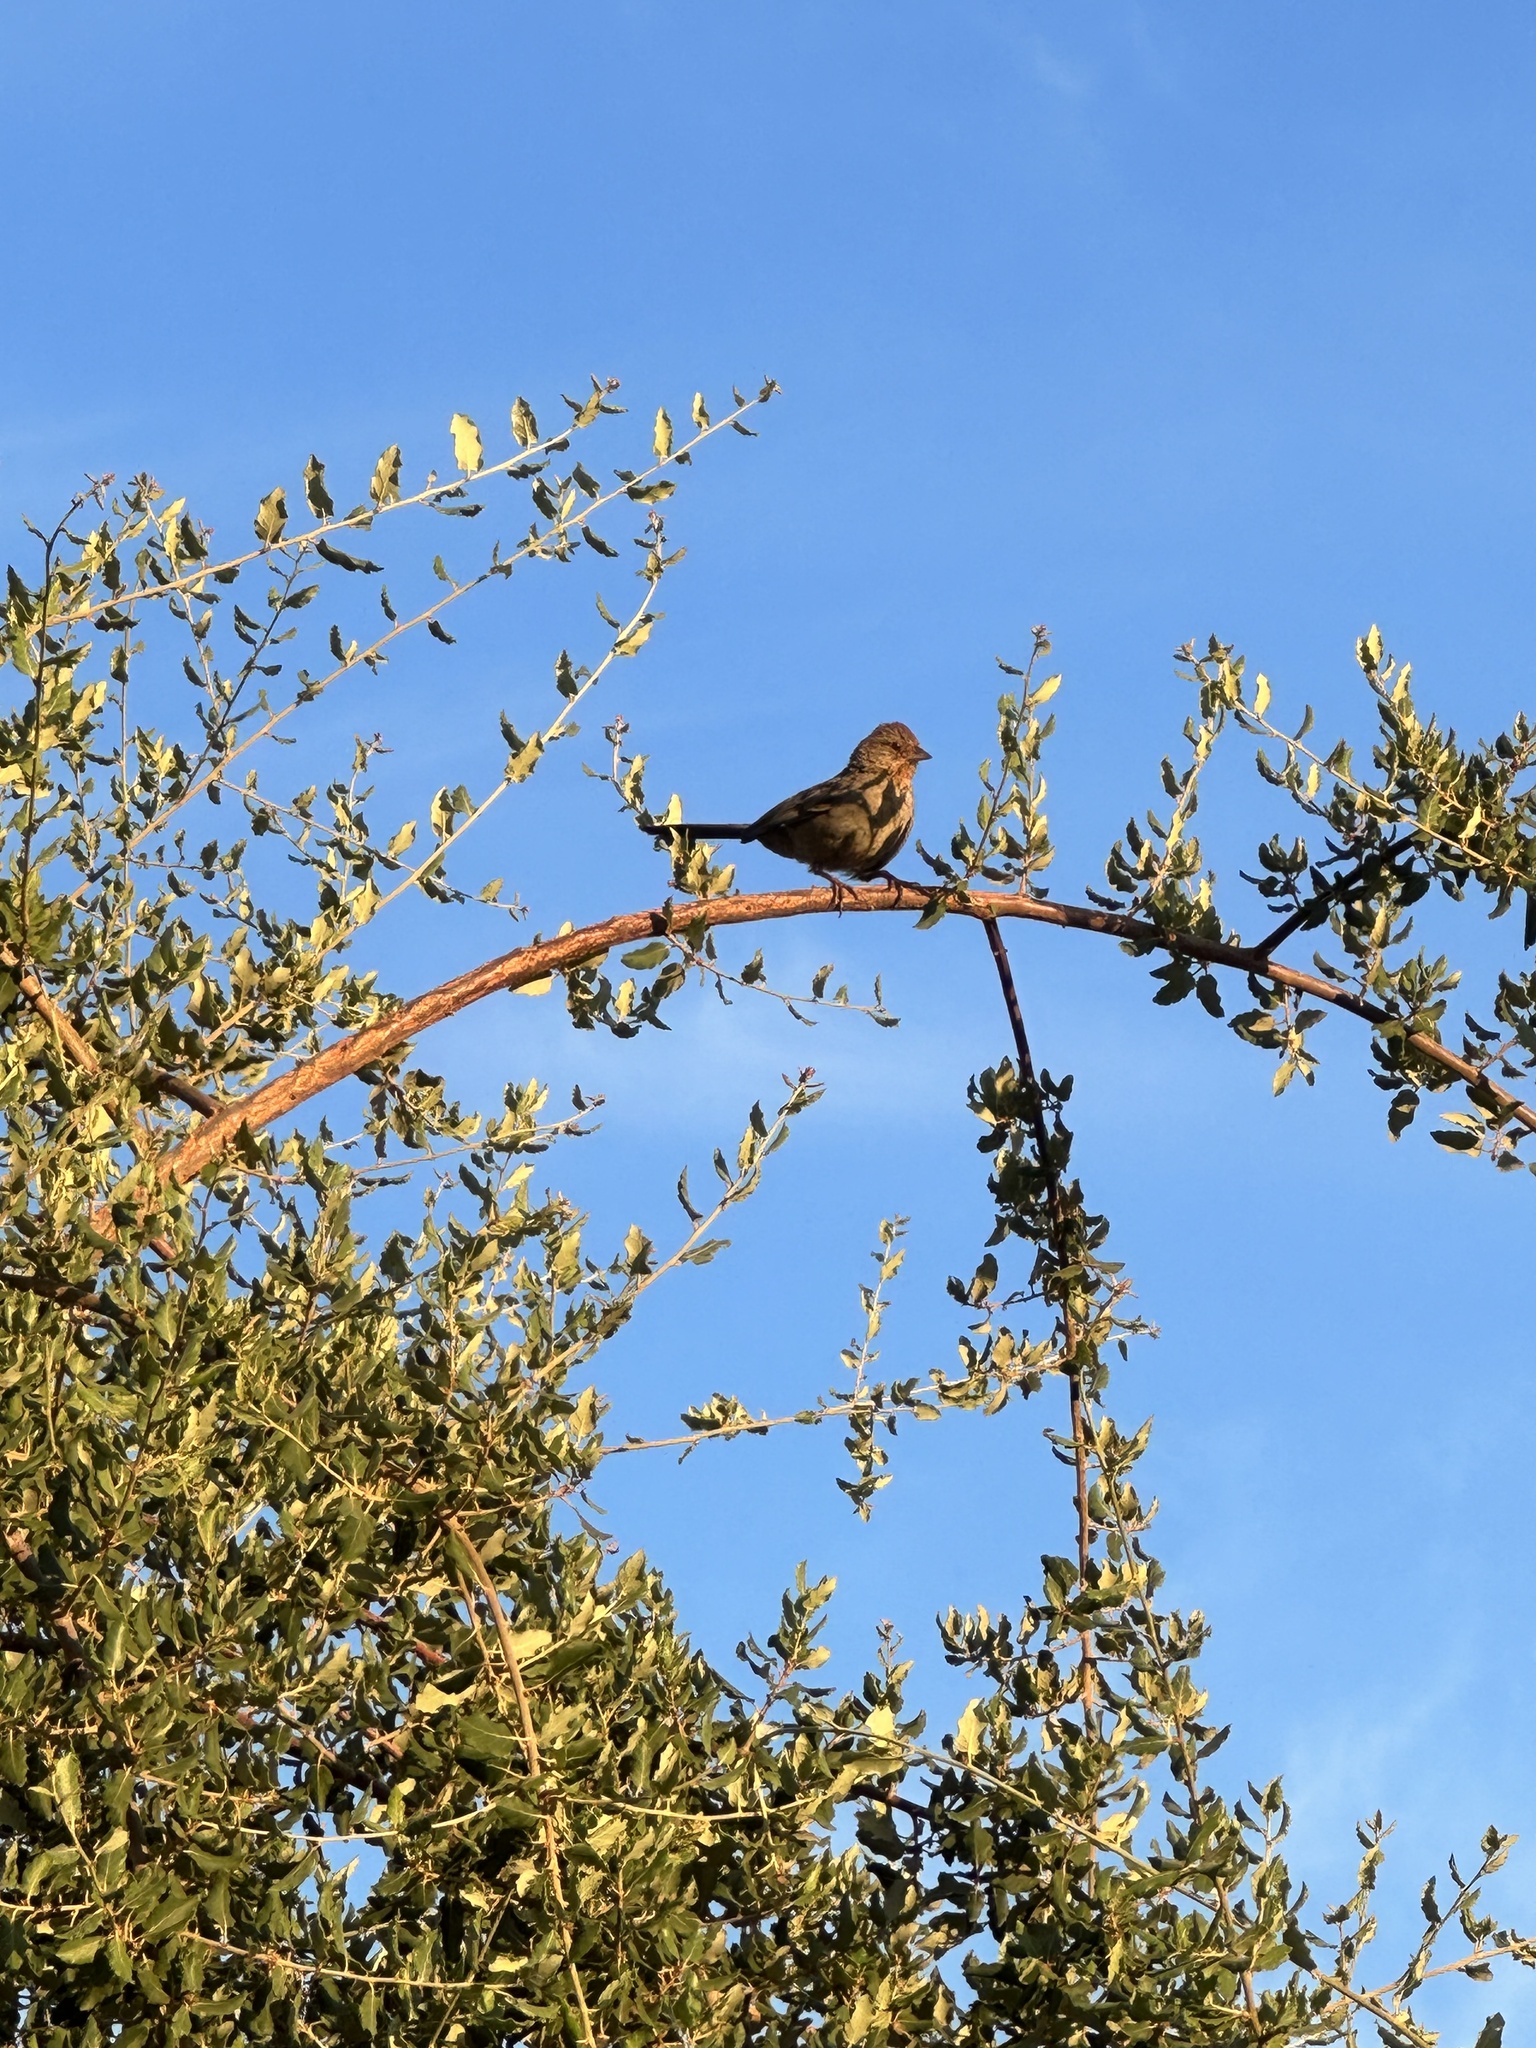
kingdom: Animalia
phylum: Chordata
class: Aves
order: Passeriformes
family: Passerellidae
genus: Melozone
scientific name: Melozone crissalis
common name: California towhee
